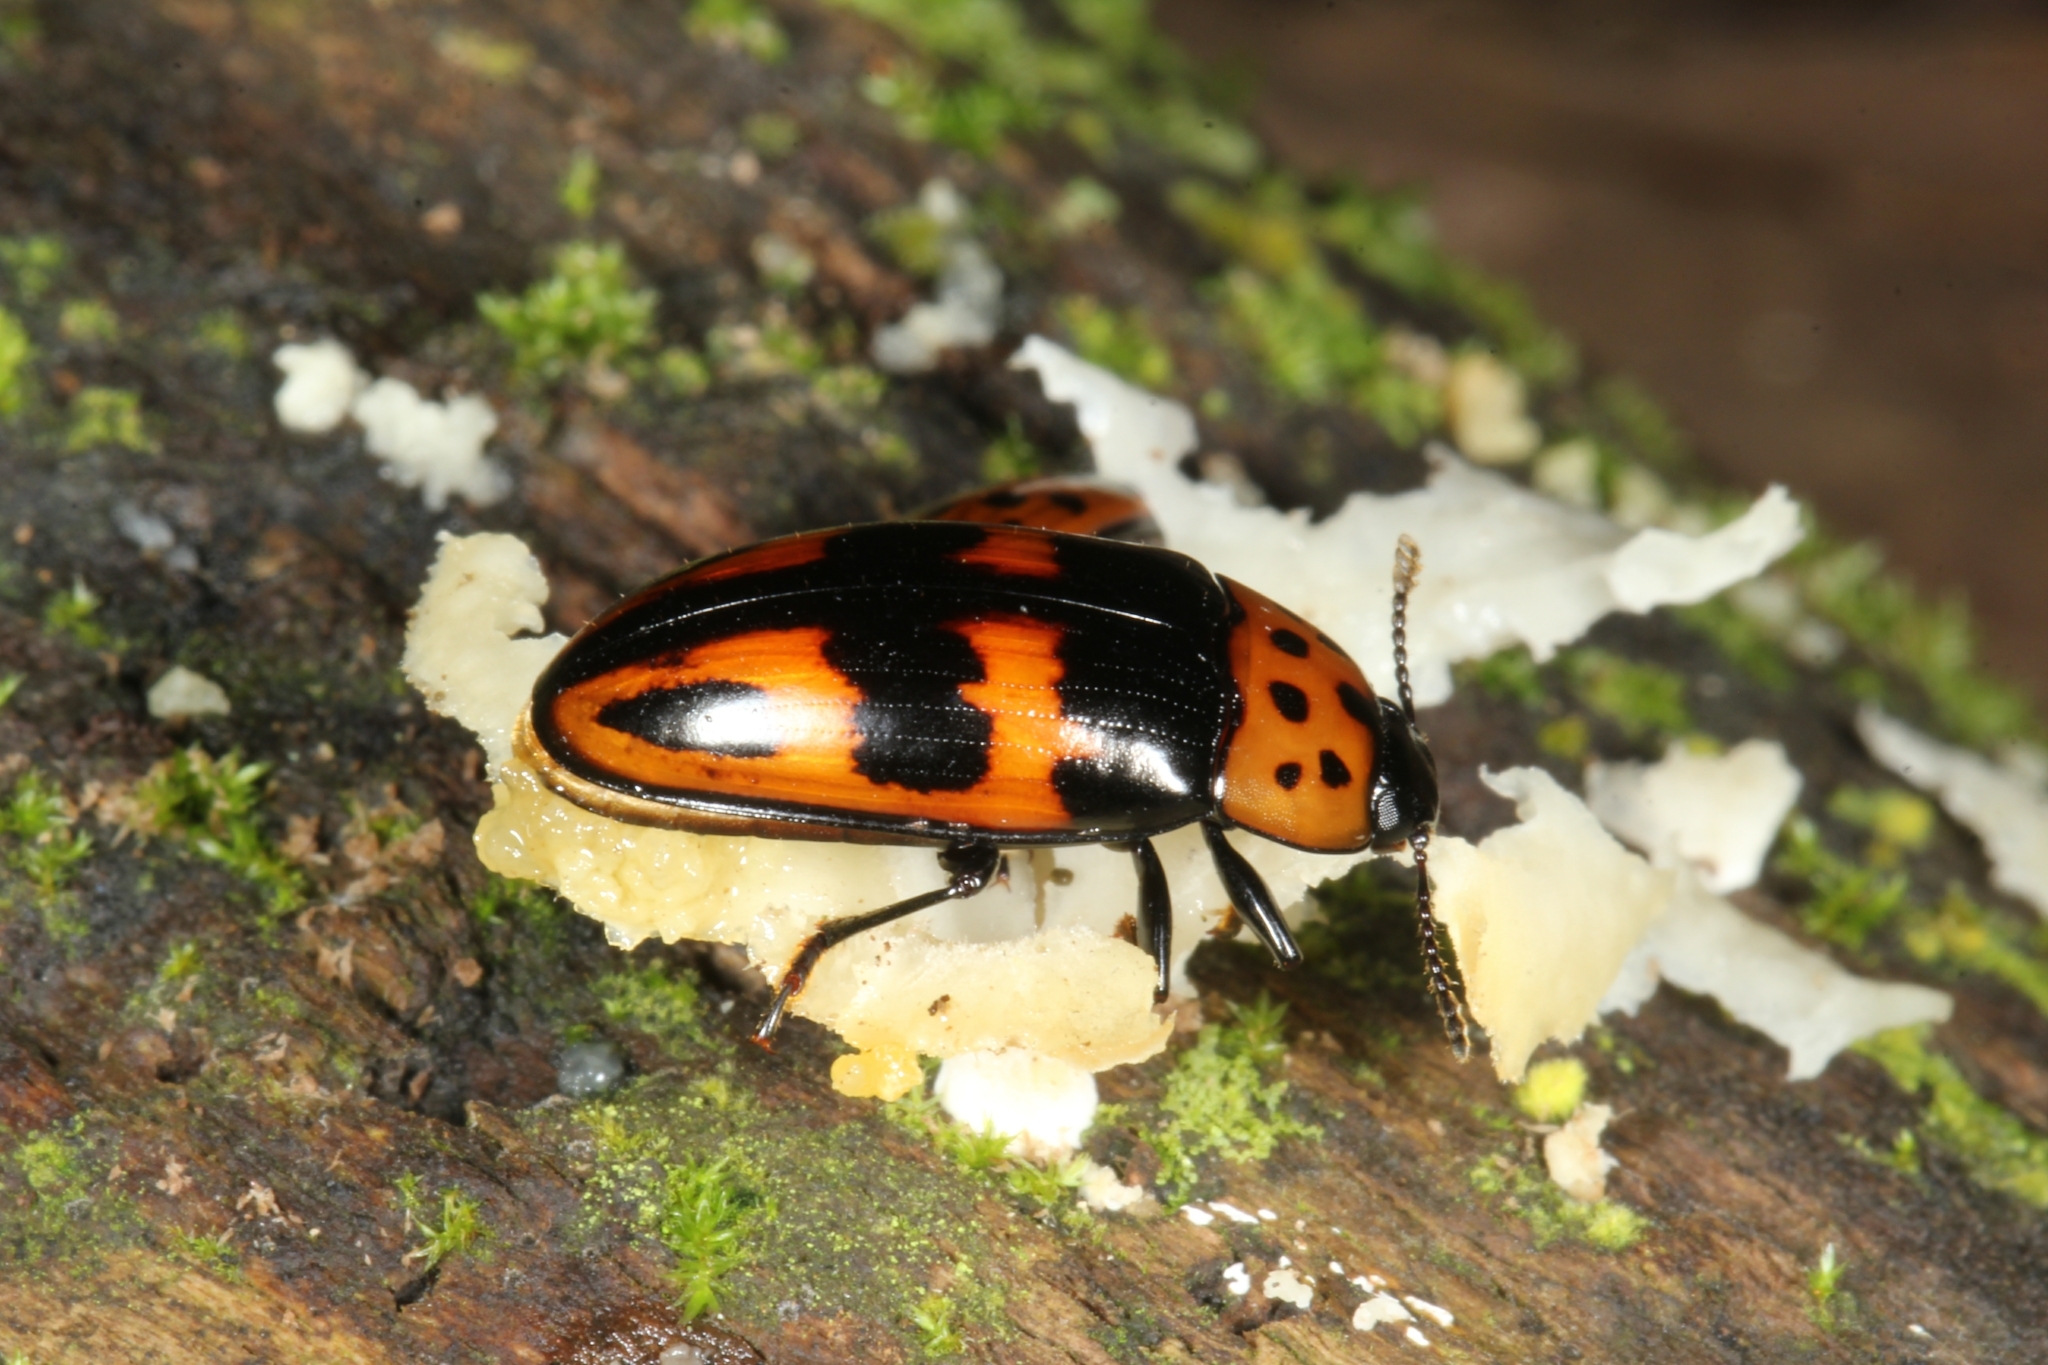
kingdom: Animalia
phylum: Arthropoda
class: Insecta
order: Coleoptera
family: Erotylidae
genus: Pselaphacus
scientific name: Pselaphacus puncticollis
